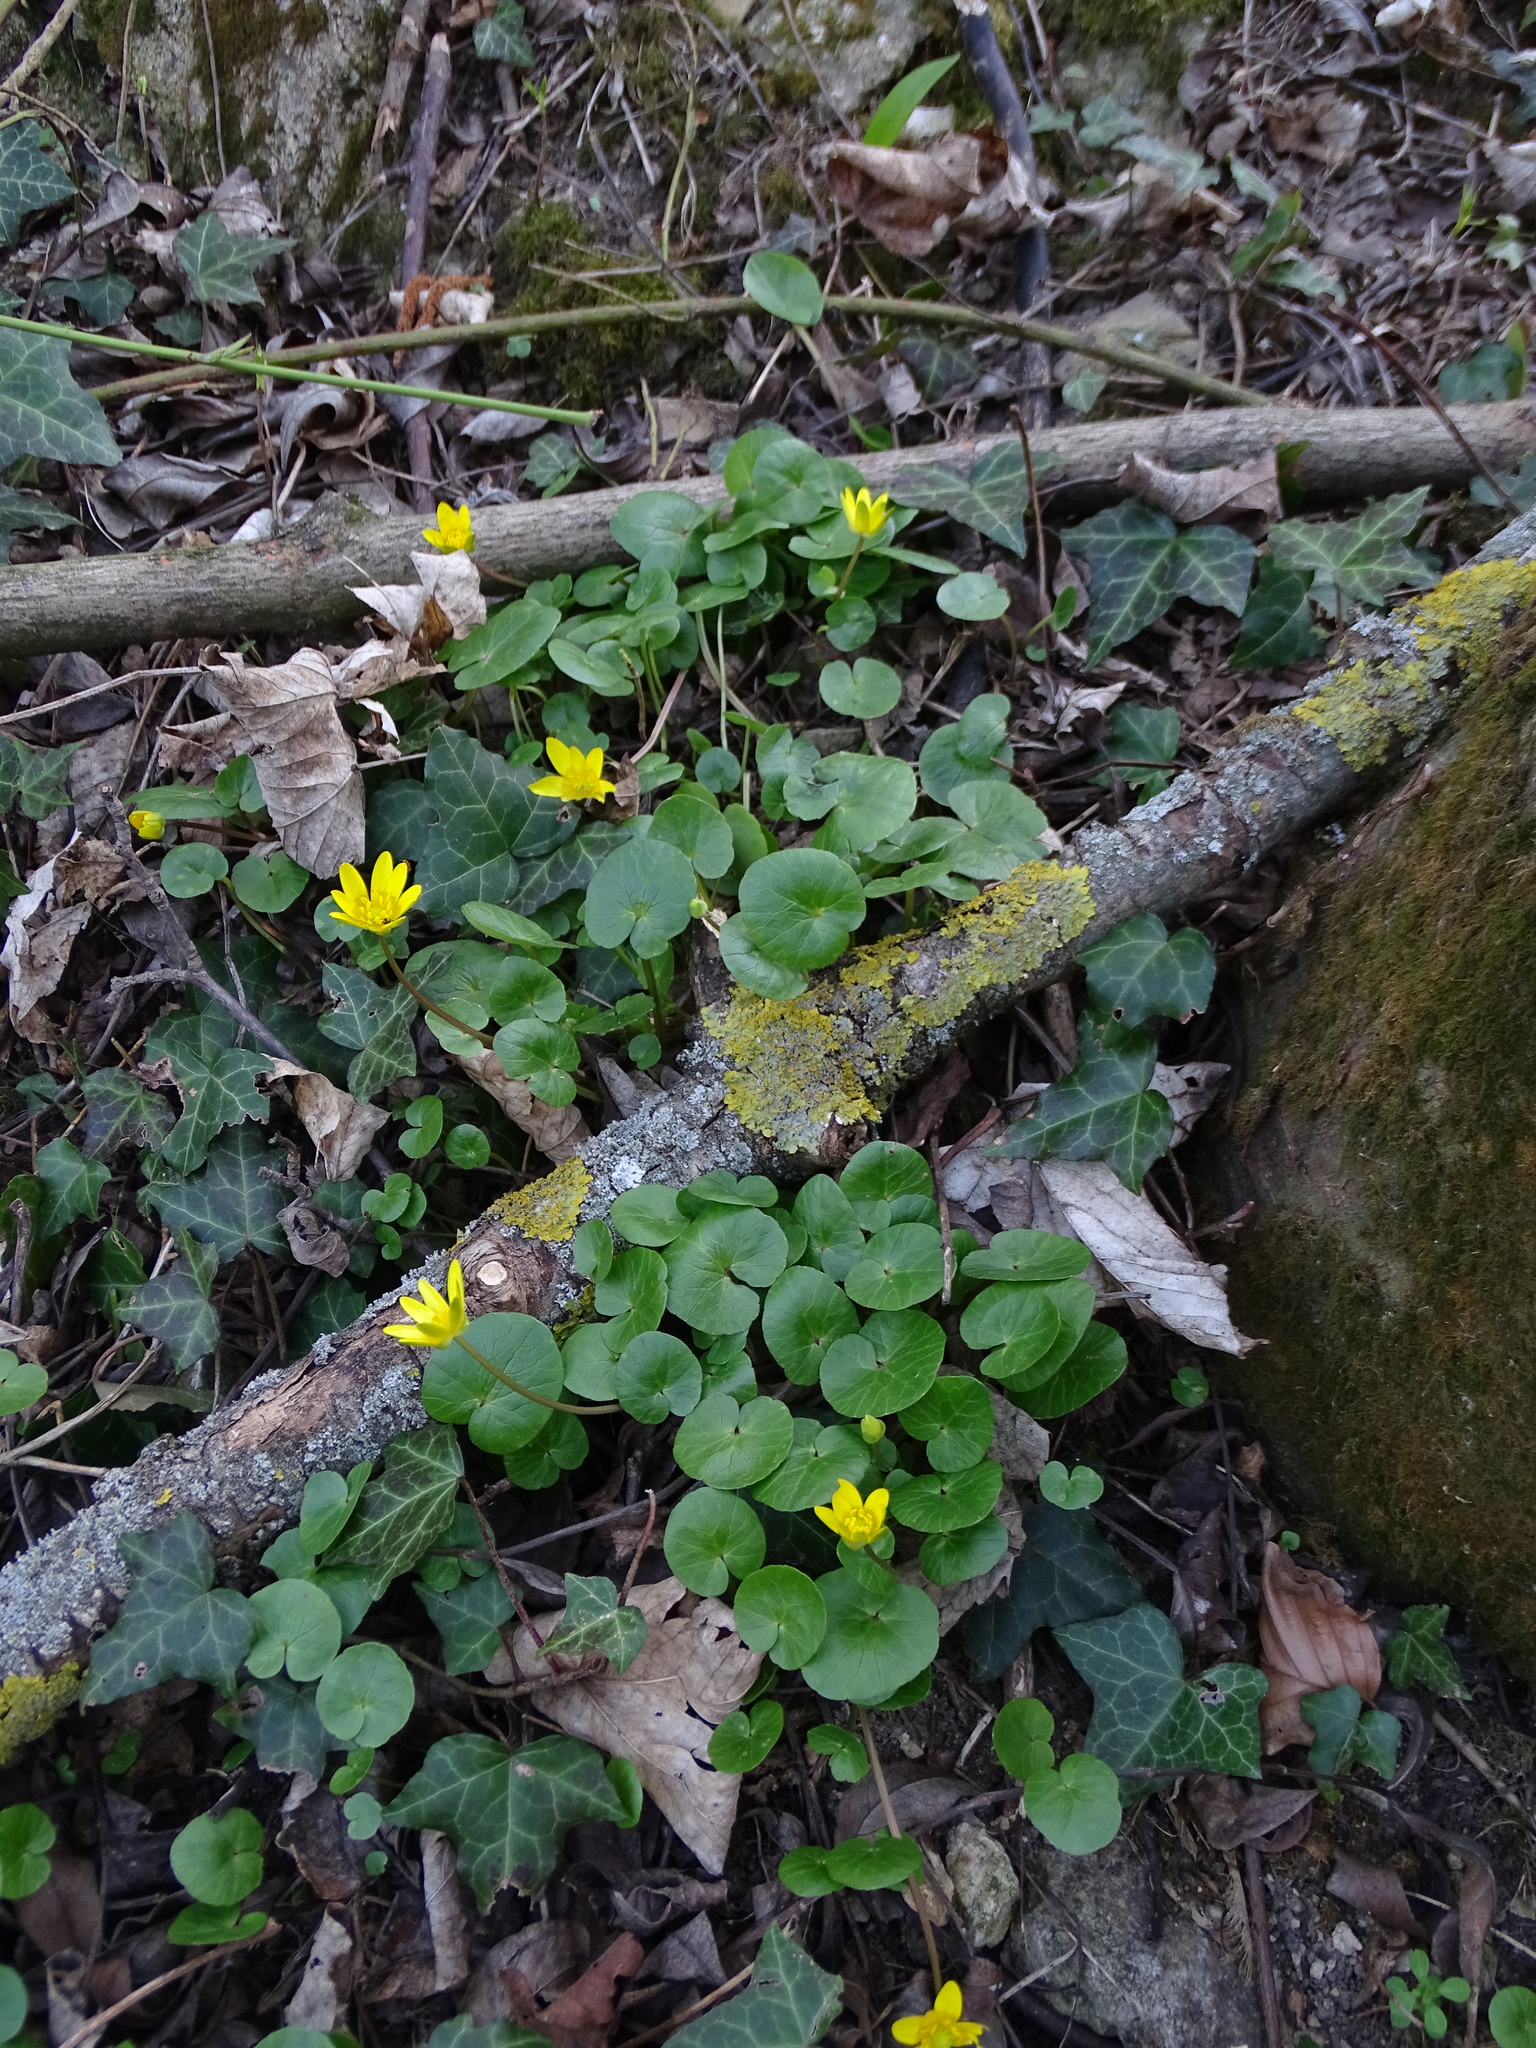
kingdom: Plantae
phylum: Tracheophyta
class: Magnoliopsida
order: Ranunculales
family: Ranunculaceae
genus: Ficaria
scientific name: Ficaria verna
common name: Lesser celandine
